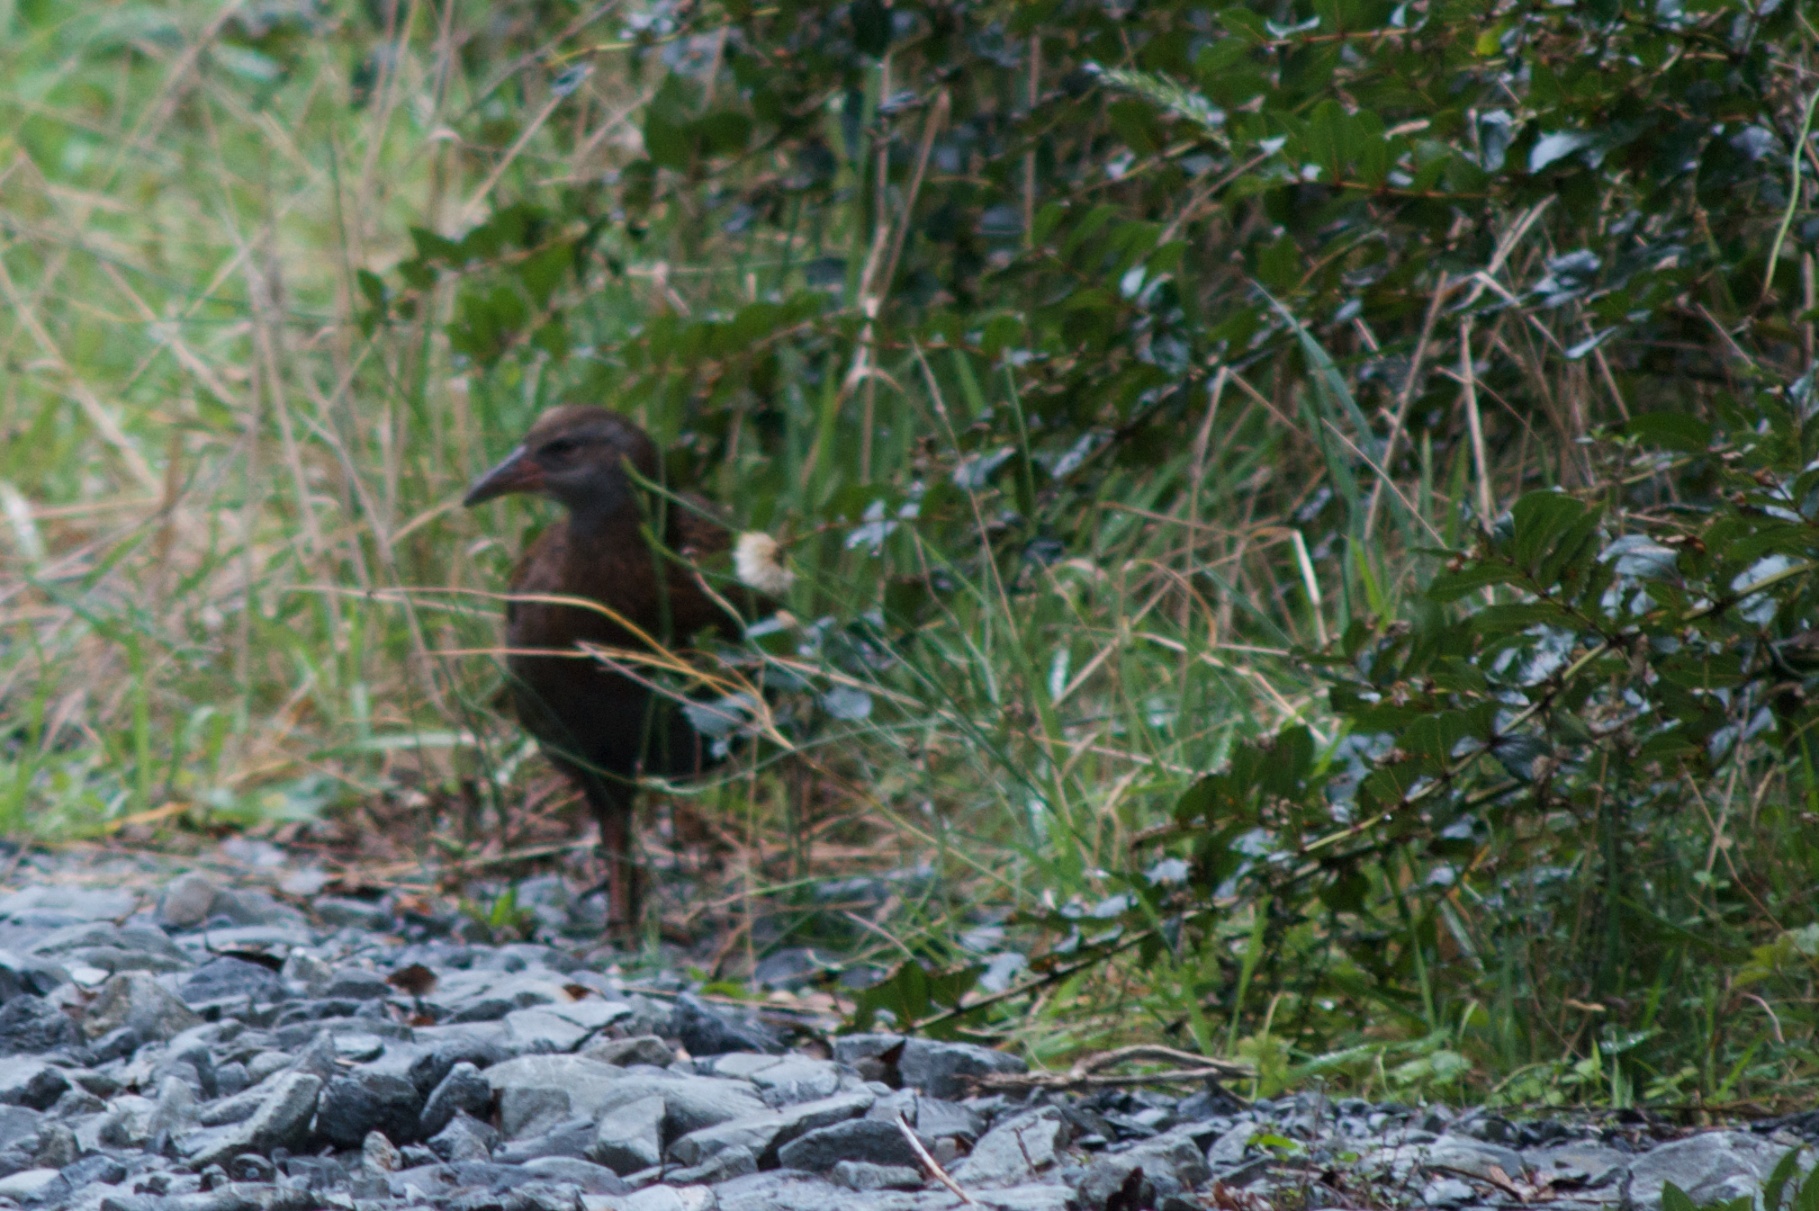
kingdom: Animalia
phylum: Chordata
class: Aves
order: Gruiformes
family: Rallidae
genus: Gallirallus
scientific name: Gallirallus australis
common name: Weka
